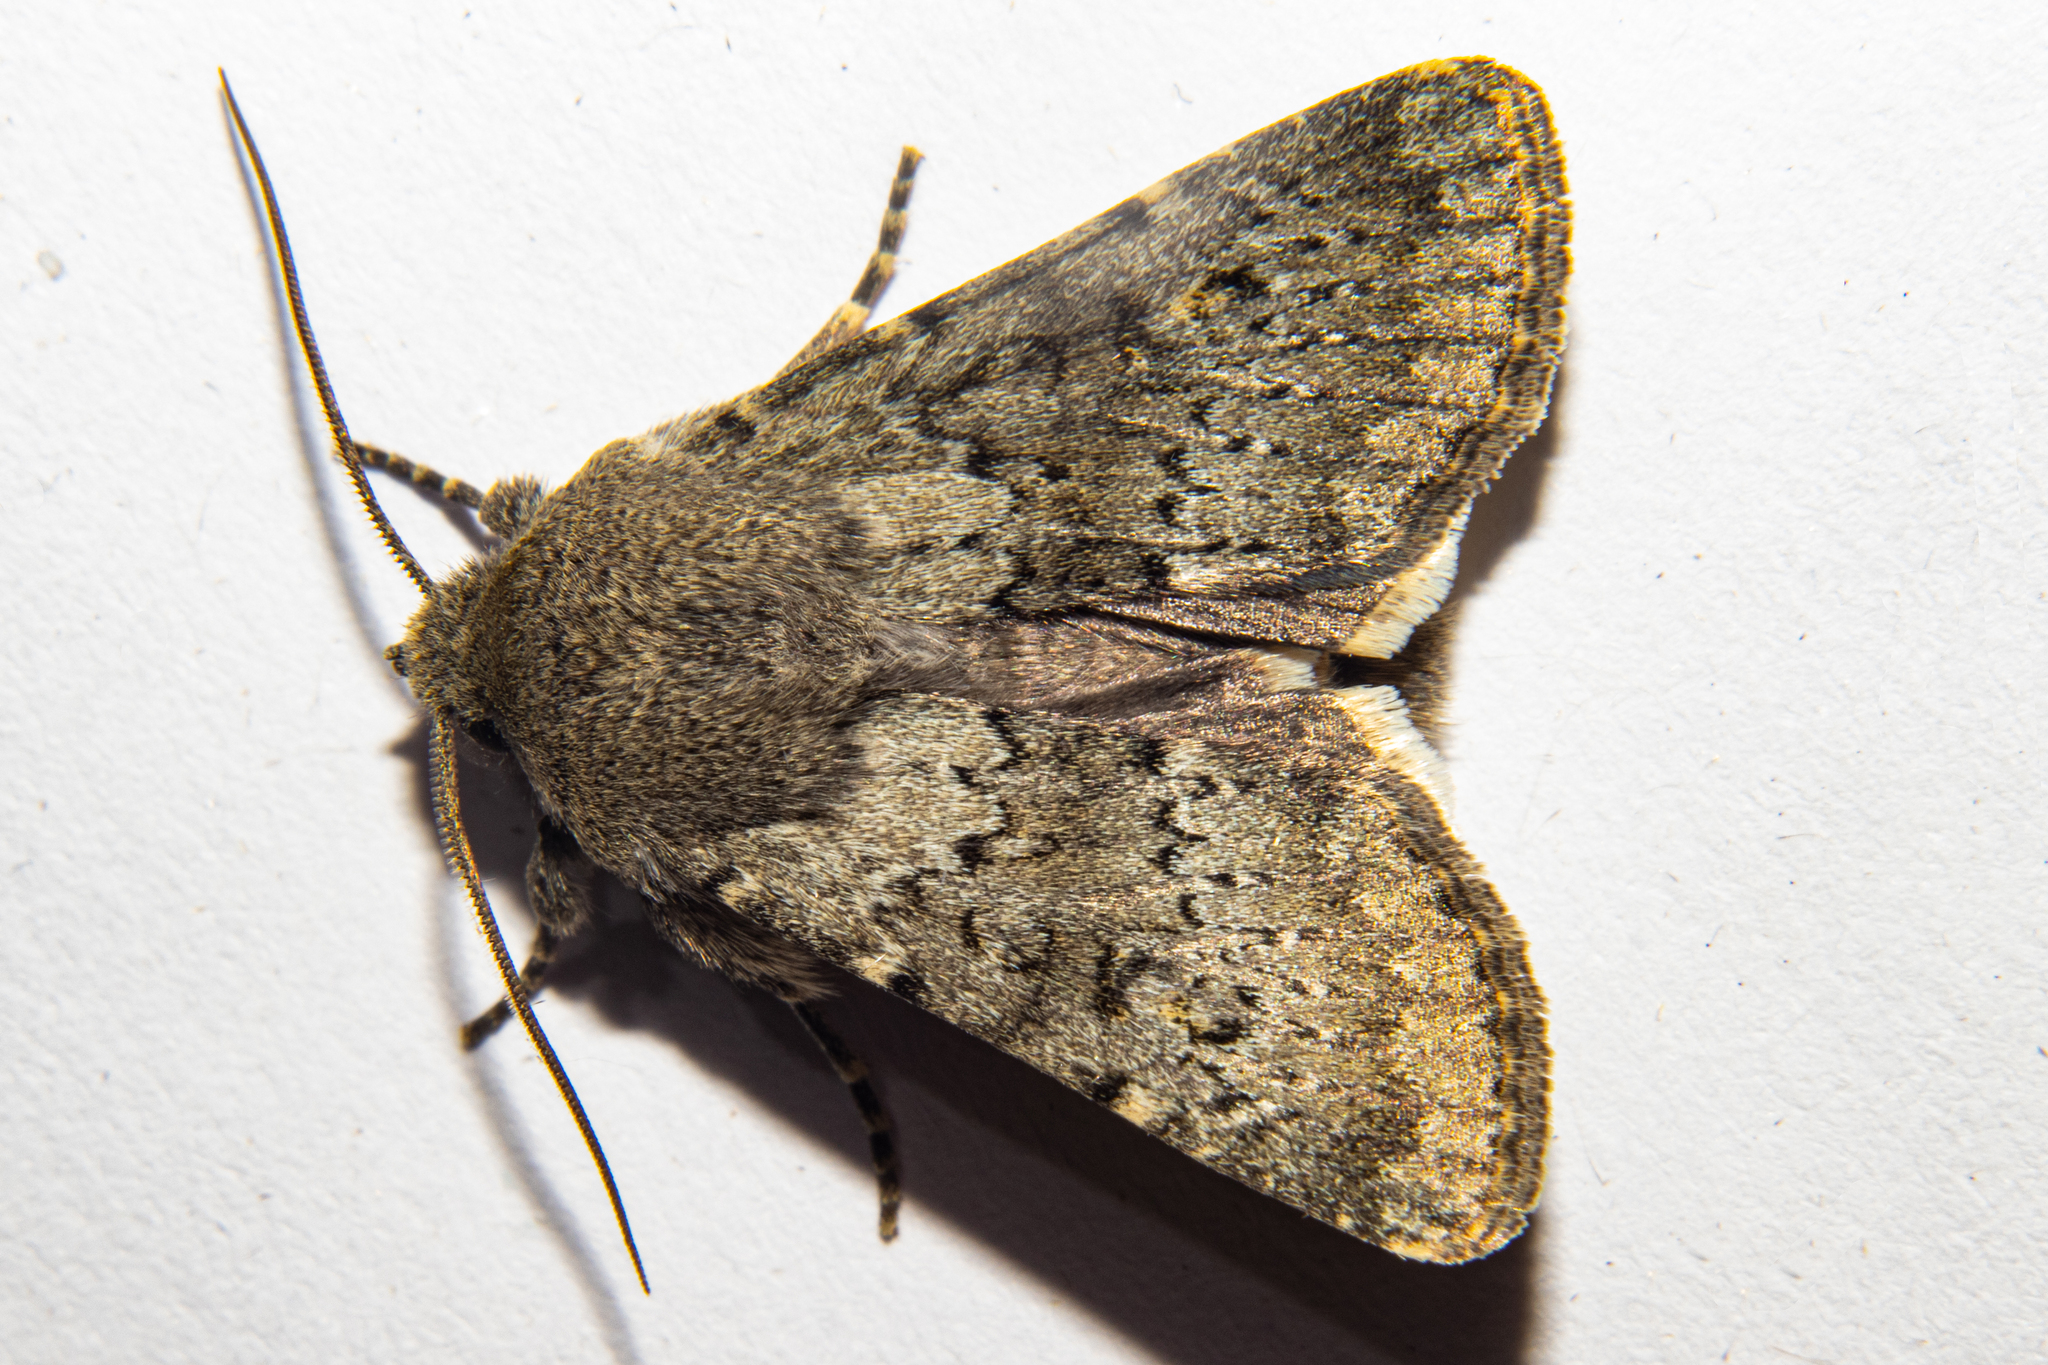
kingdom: Animalia
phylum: Arthropoda
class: Insecta
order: Lepidoptera
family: Noctuidae
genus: Ichneutica
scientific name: Ichneutica moderata
